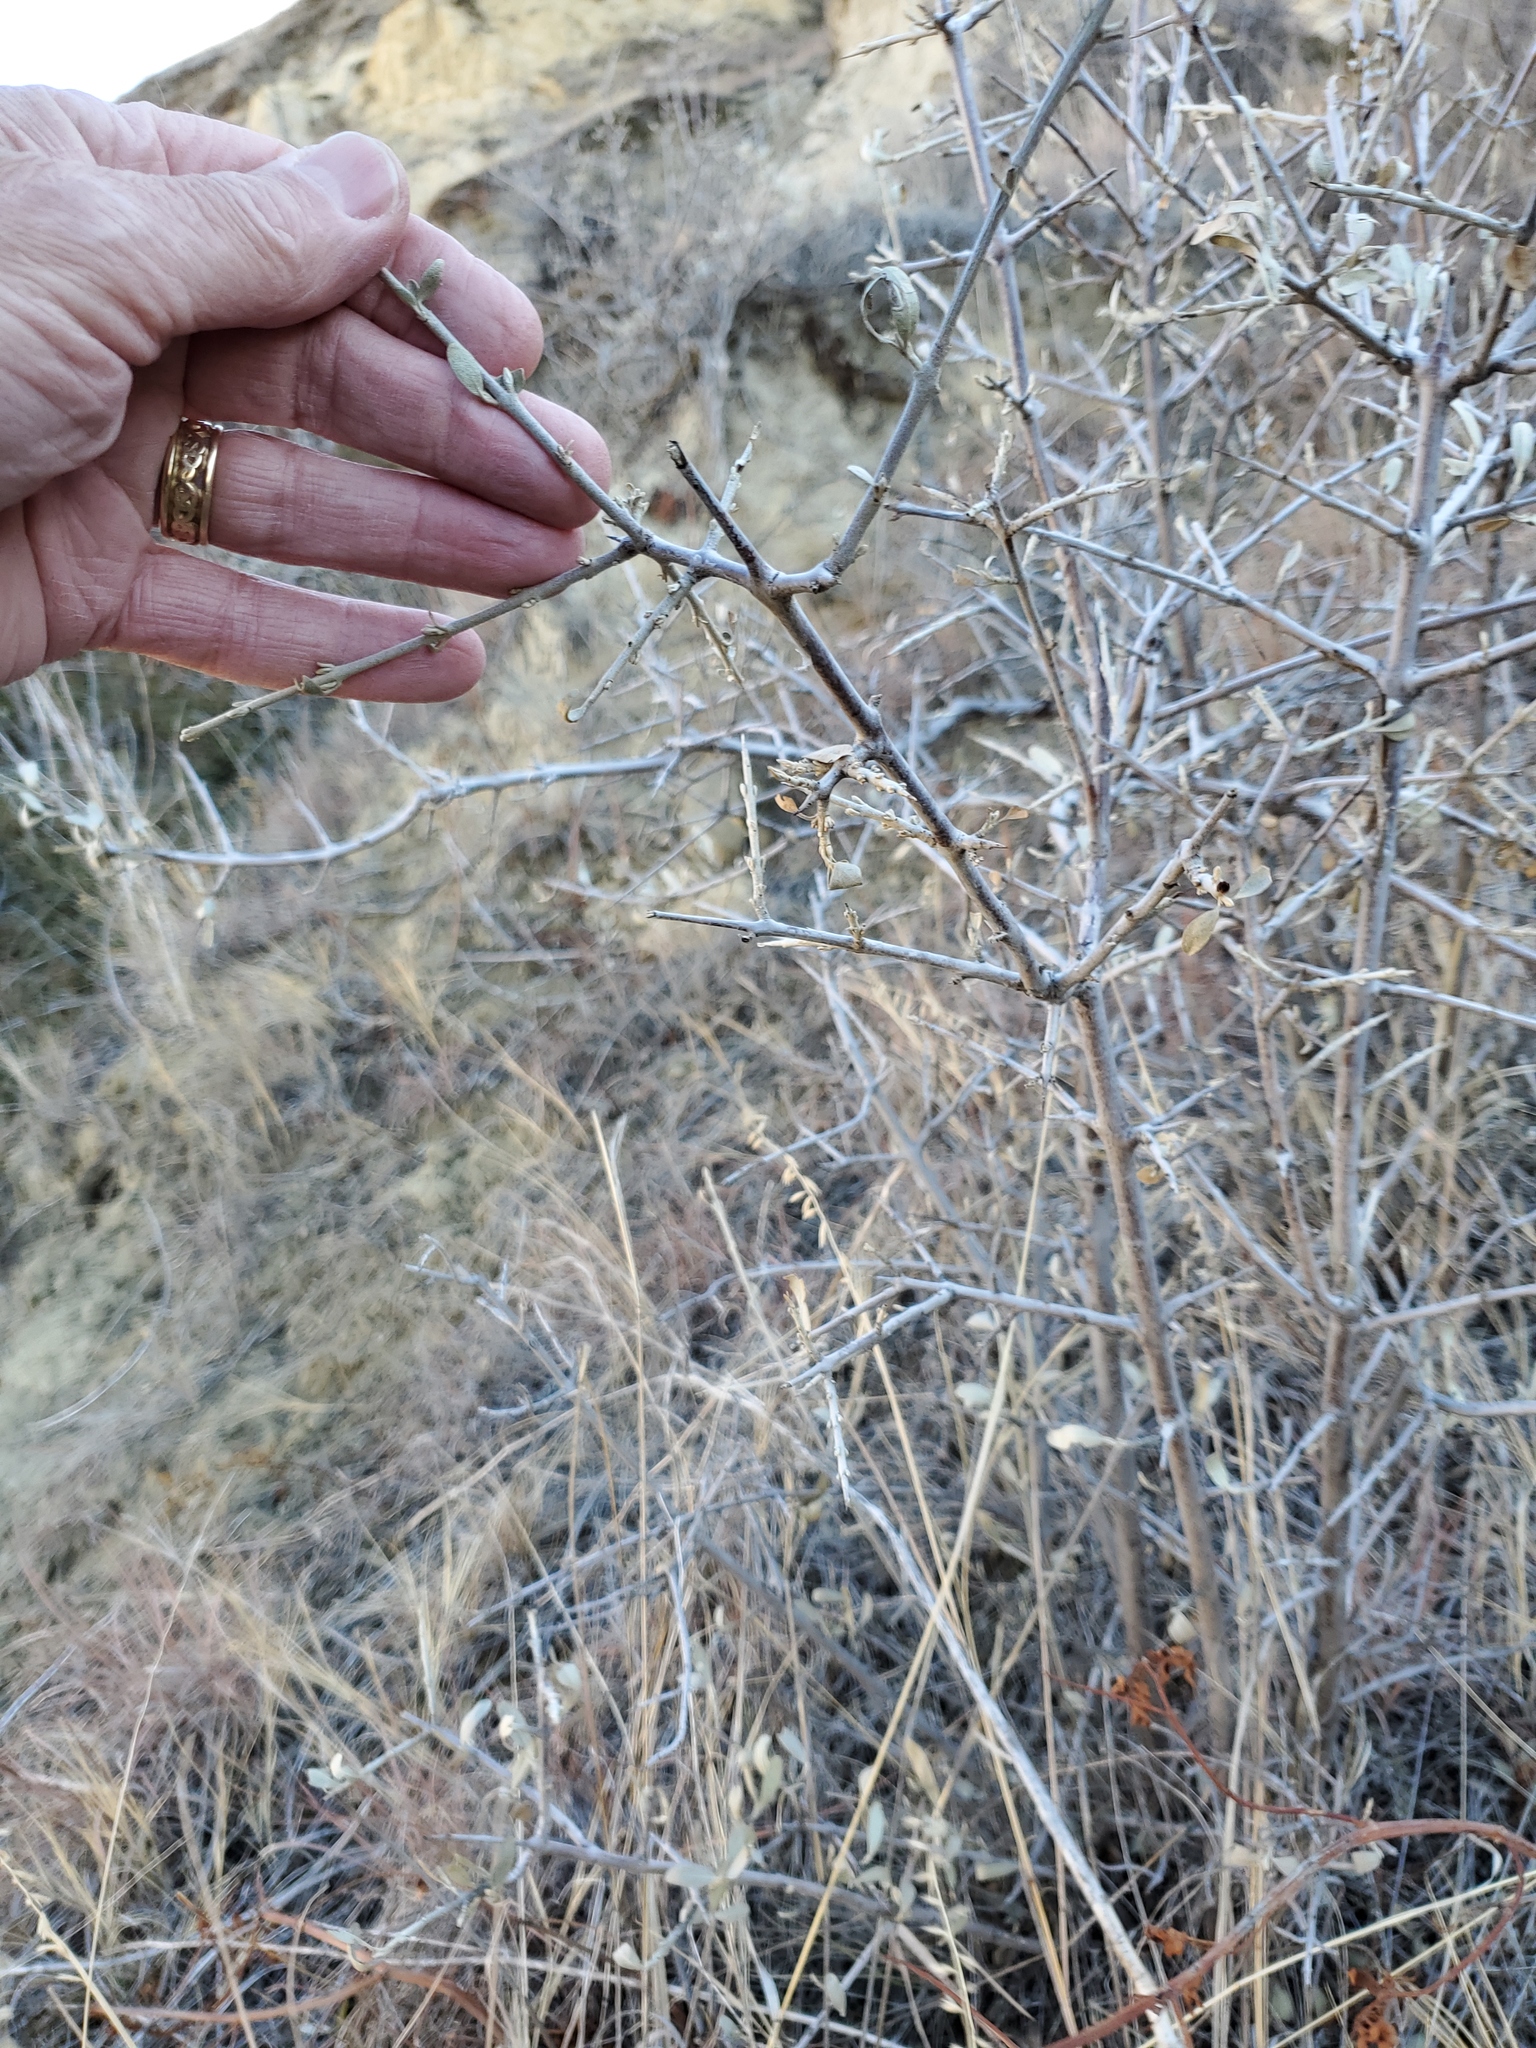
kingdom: Plantae
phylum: Tracheophyta
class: Magnoliopsida
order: Rosales
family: Elaeagnaceae
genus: Shepherdia
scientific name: Shepherdia argentea
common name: Silver buffaloberry
